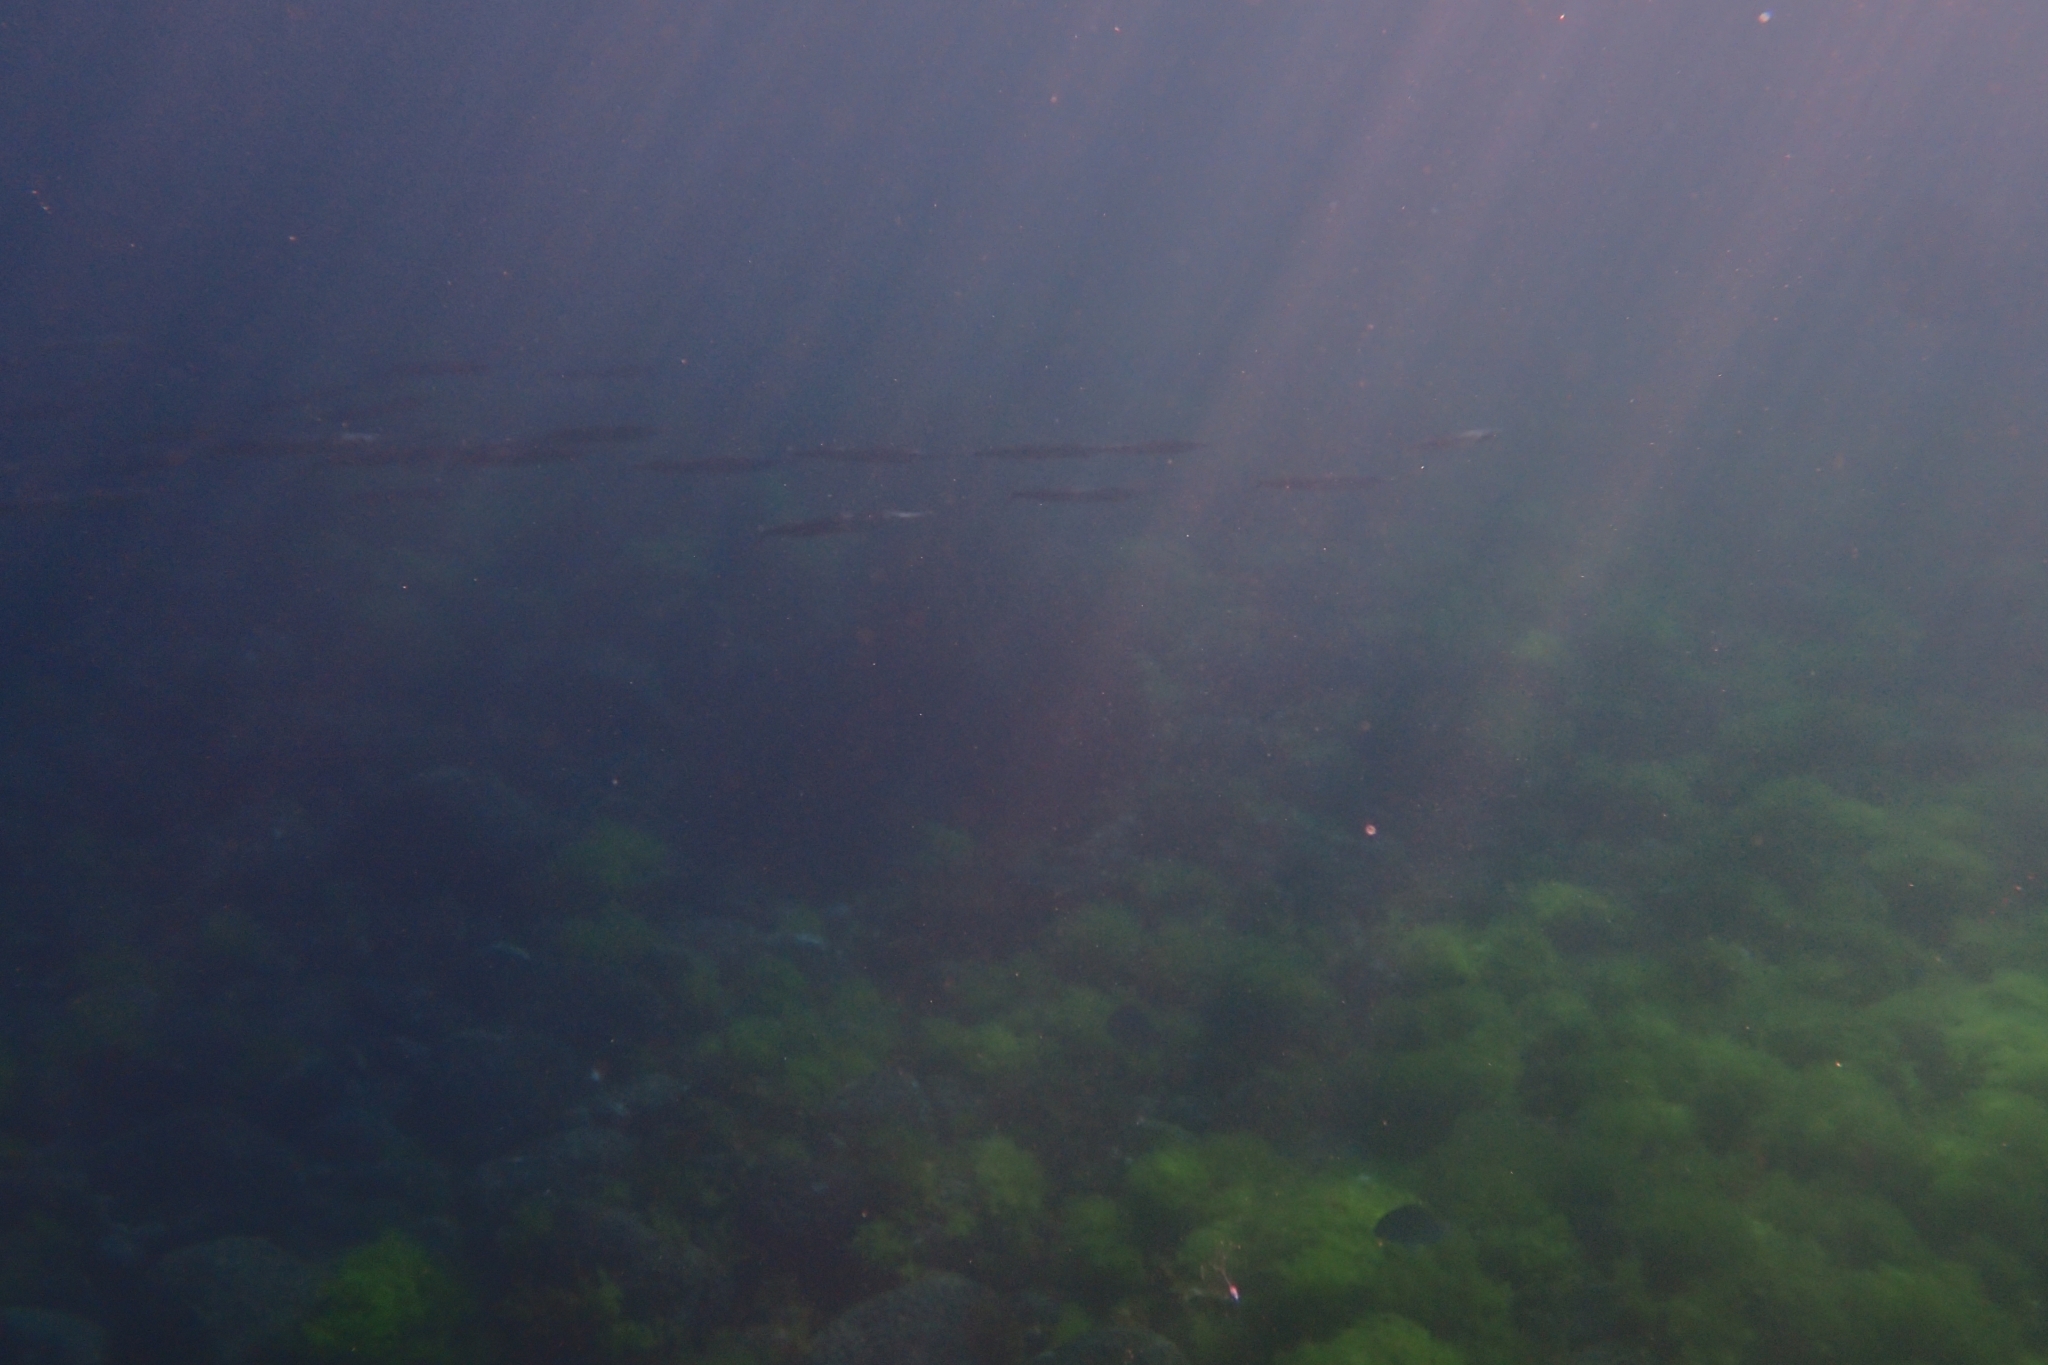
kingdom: Animalia
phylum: Chordata
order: Beloniformes
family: Hemiramphidae
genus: Hyporhamphus
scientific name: Hyporhamphus ihi
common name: Garfish
